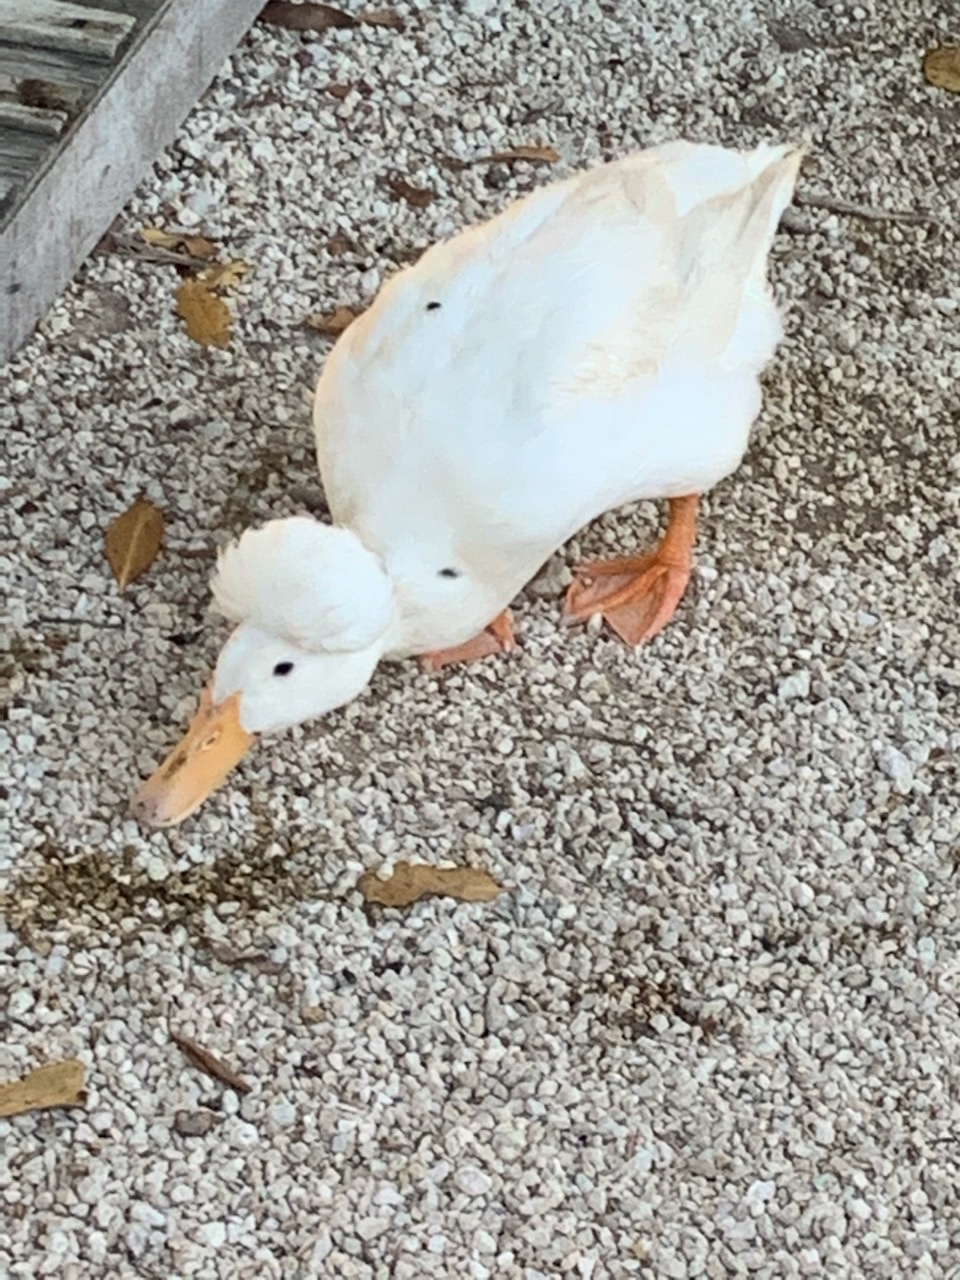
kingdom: Animalia
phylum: Chordata
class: Aves
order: Anseriformes
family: Anatidae
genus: Anas
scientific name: Anas platyrhynchos
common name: Mallard
